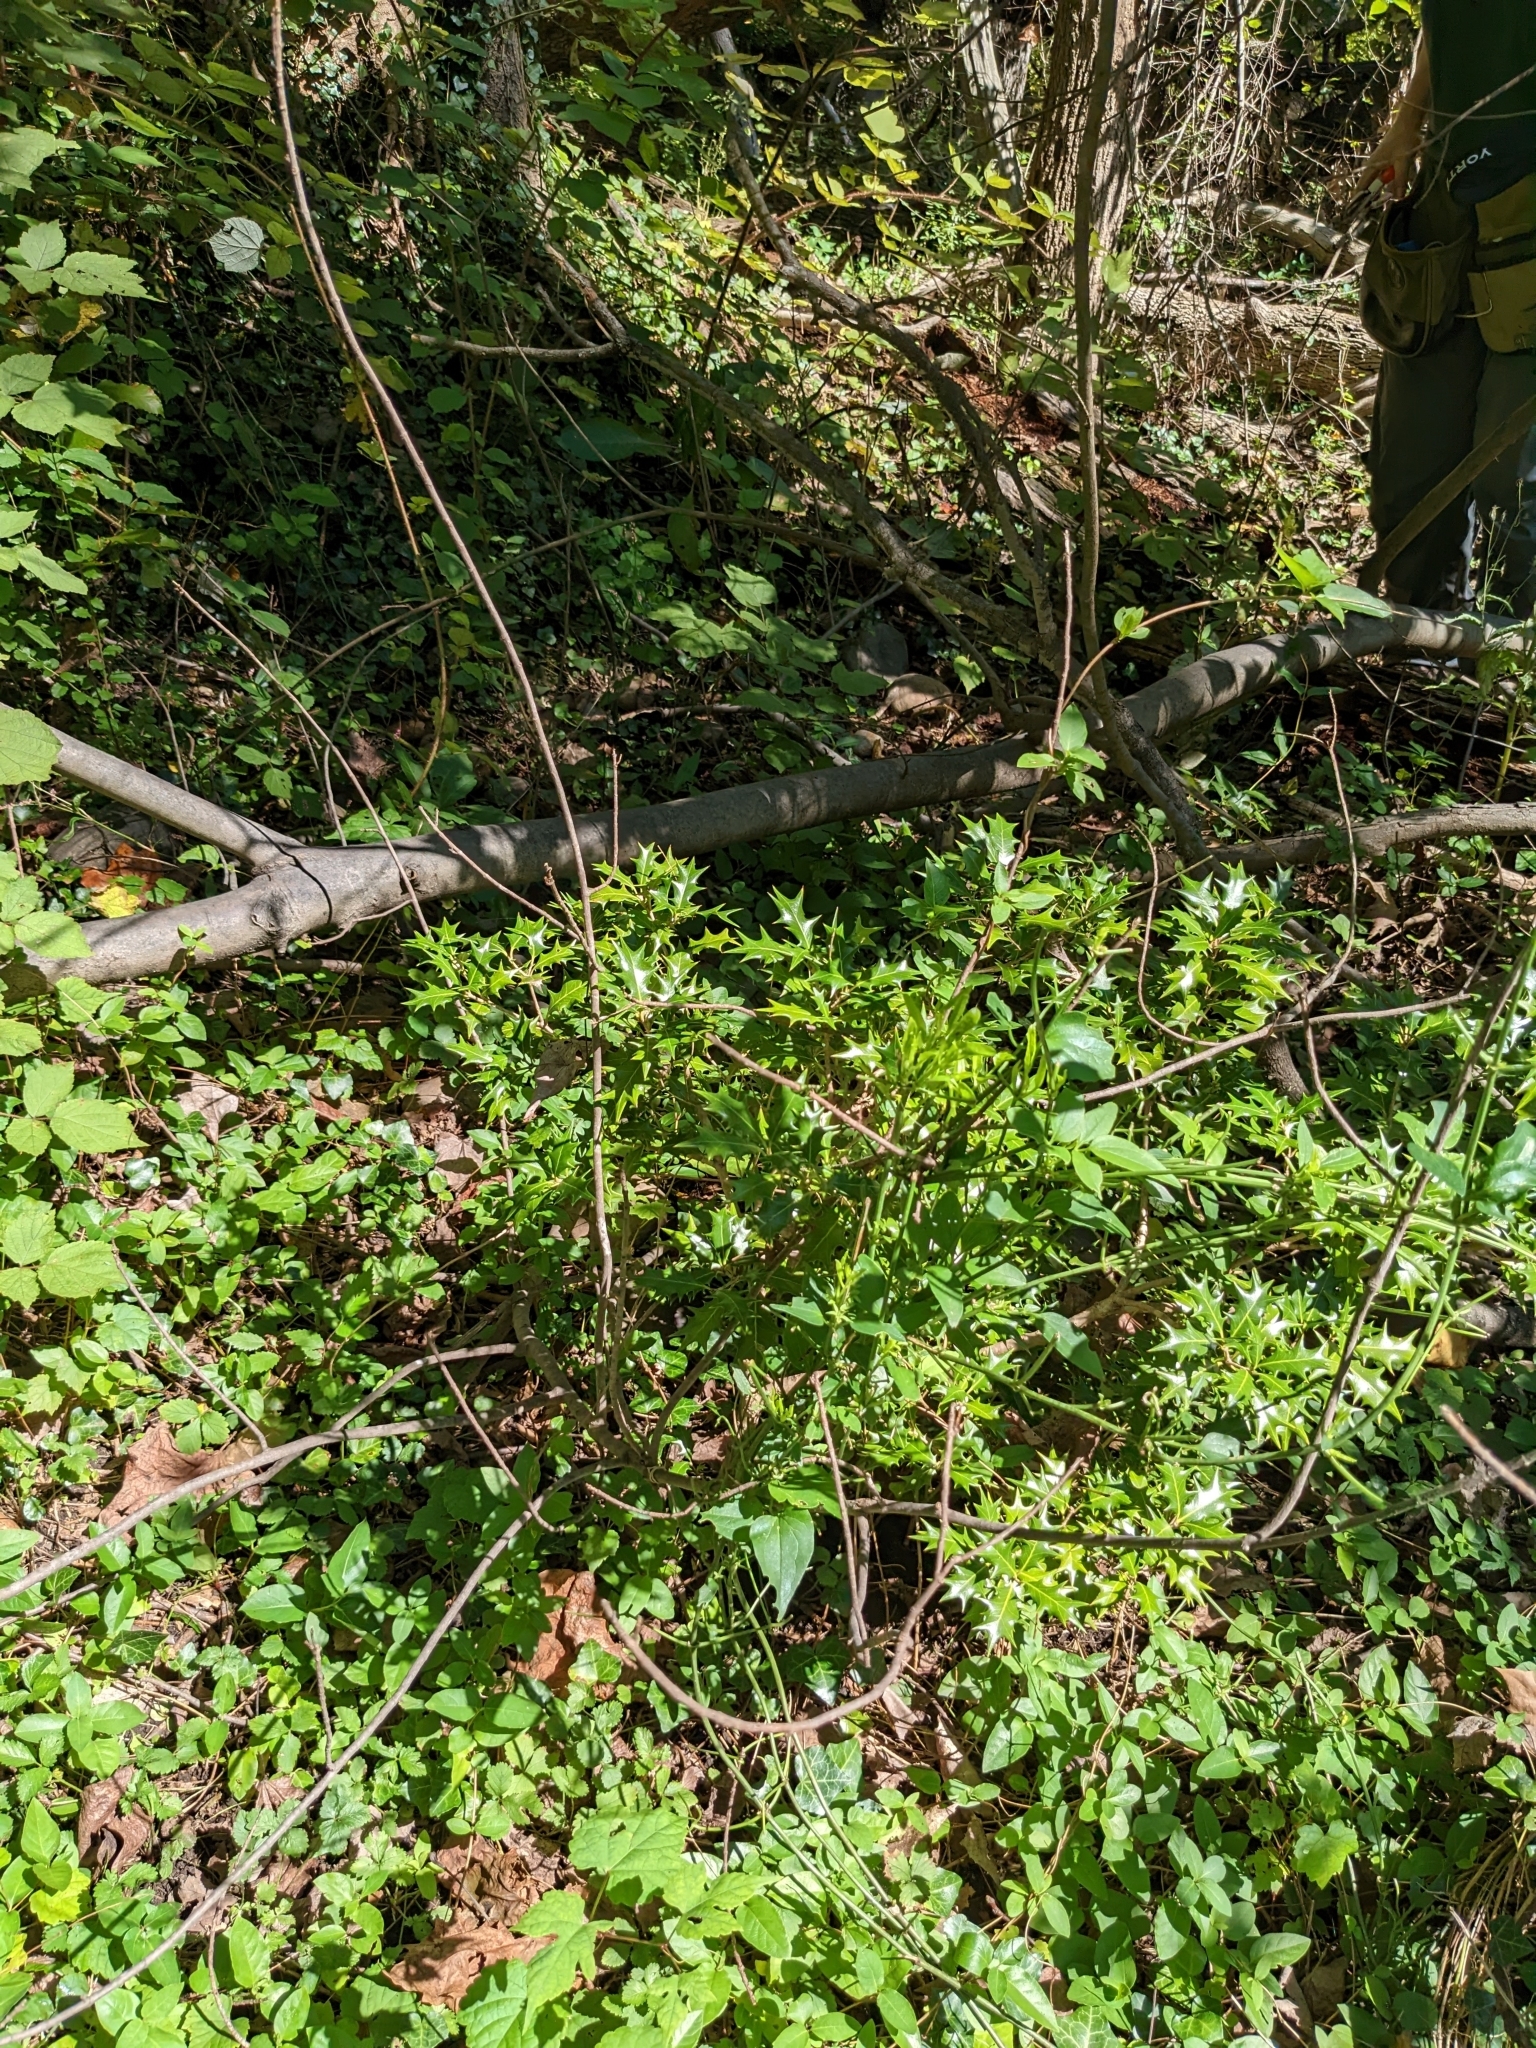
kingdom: Plantae
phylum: Tracheophyta
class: Magnoliopsida
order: Lamiales
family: Oleaceae
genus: Osmanthus
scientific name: Osmanthus heterophyllus
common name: Holly osmanthus
